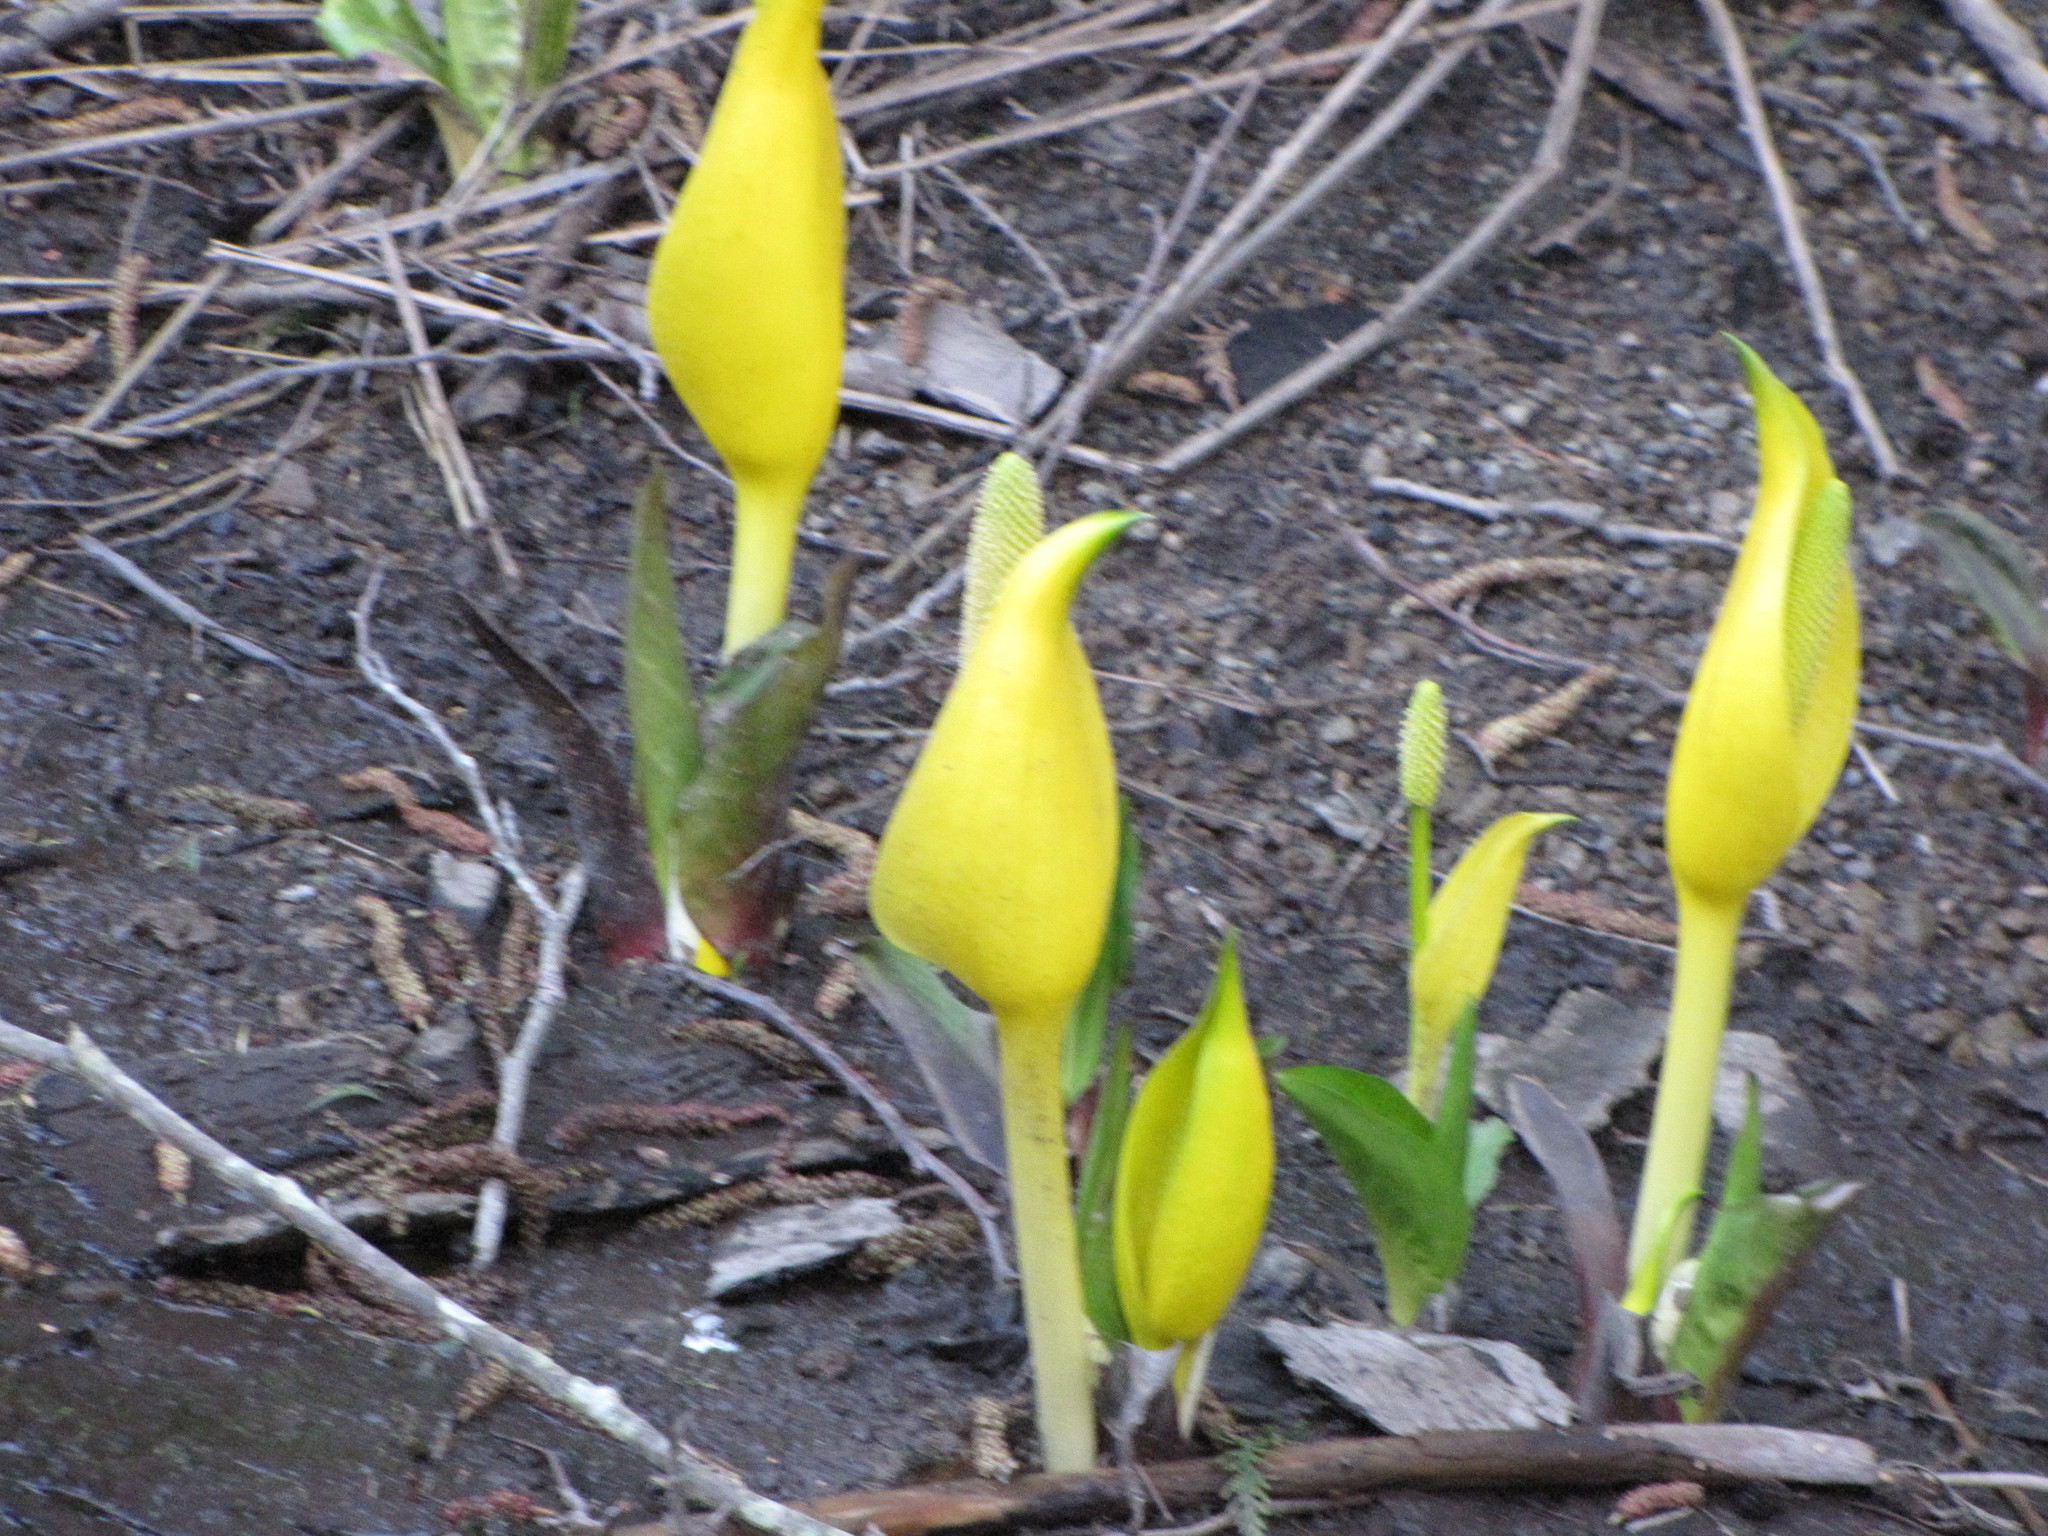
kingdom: Plantae
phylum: Tracheophyta
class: Liliopsida
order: Alismatales
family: Araceae
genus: Lysichiton
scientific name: Lysichiton americanus
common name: American skunk cabbage
